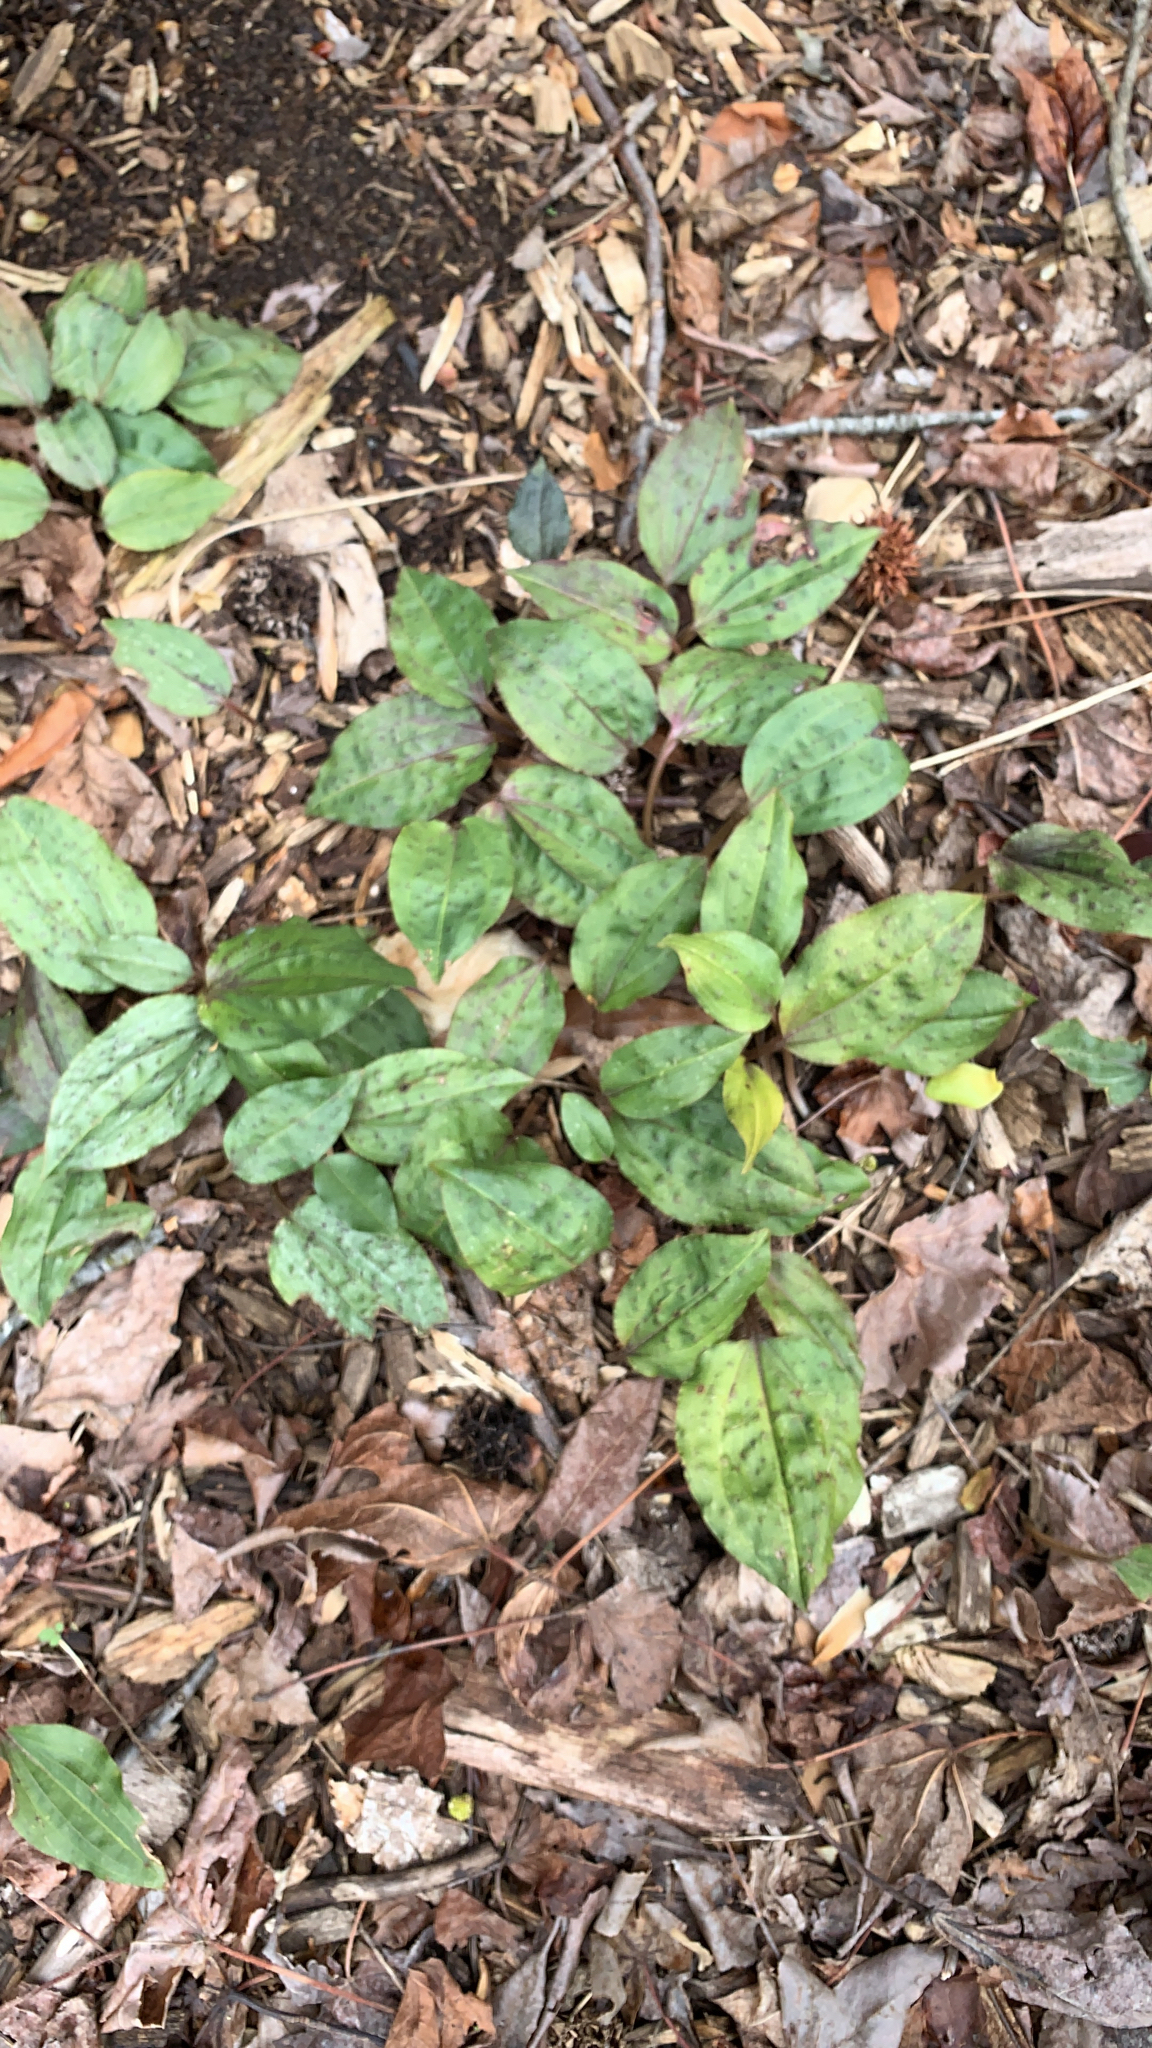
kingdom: Plantae
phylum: Tracheophyta
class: Liliopsida
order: Asparagales
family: Orchidaceae
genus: Tipularia
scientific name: Tipularia discolor
